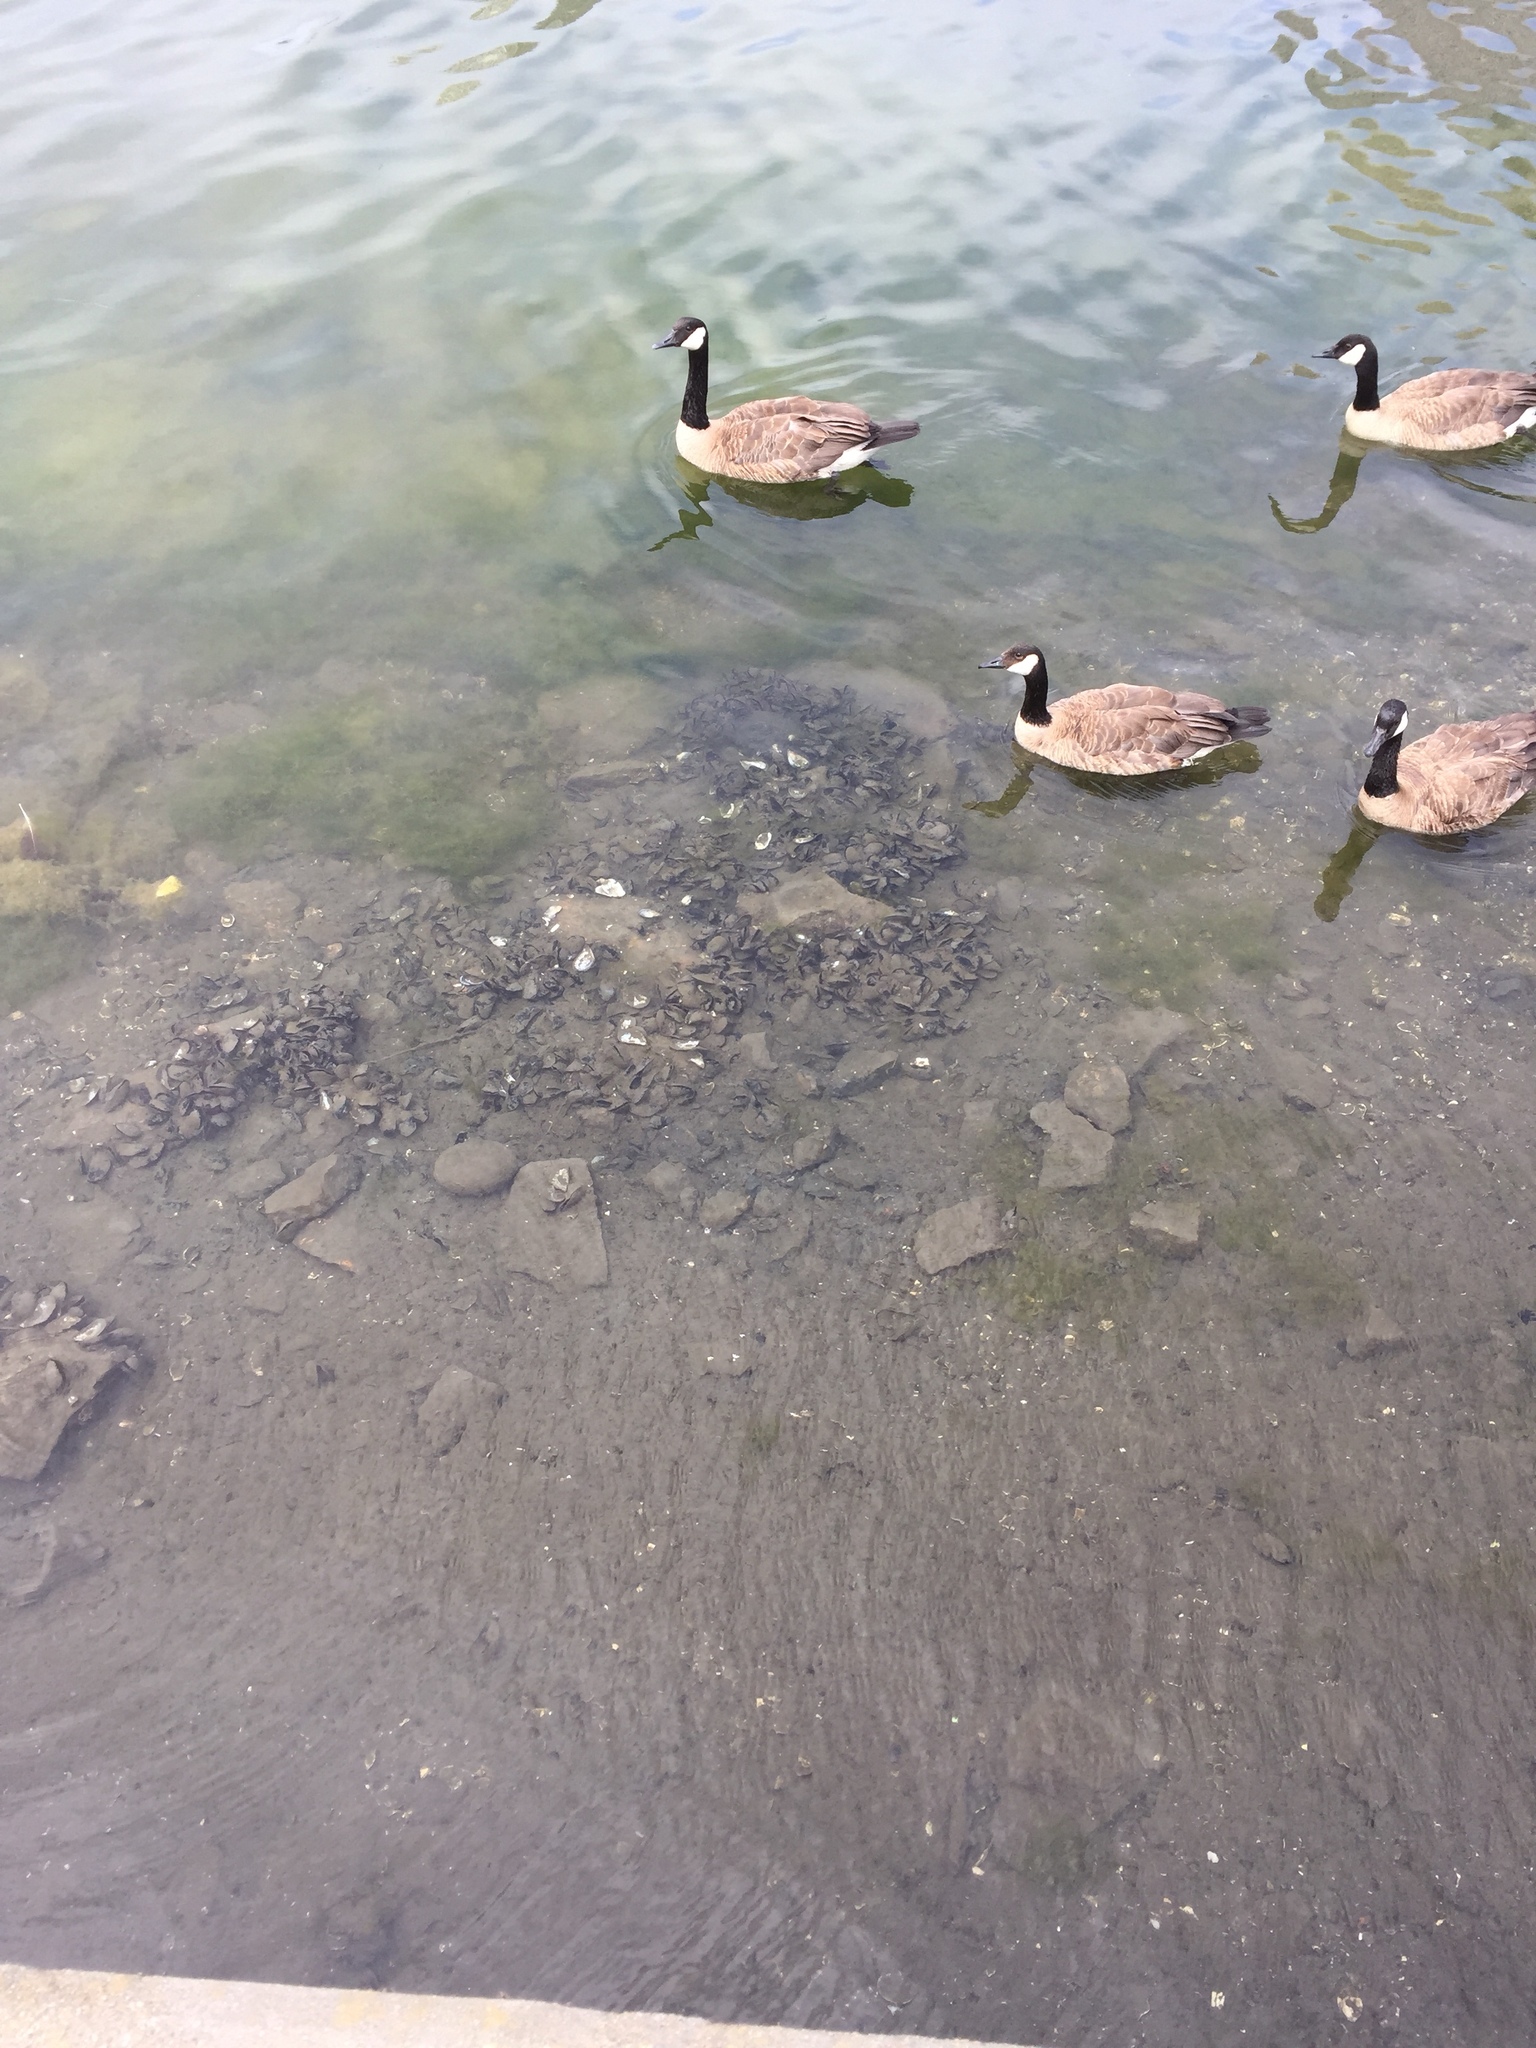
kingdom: Animalia
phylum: Chordata
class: Aves
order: Anseriformes
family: Anatidae
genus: Branta
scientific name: Branta canadensis
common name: Canada goose
